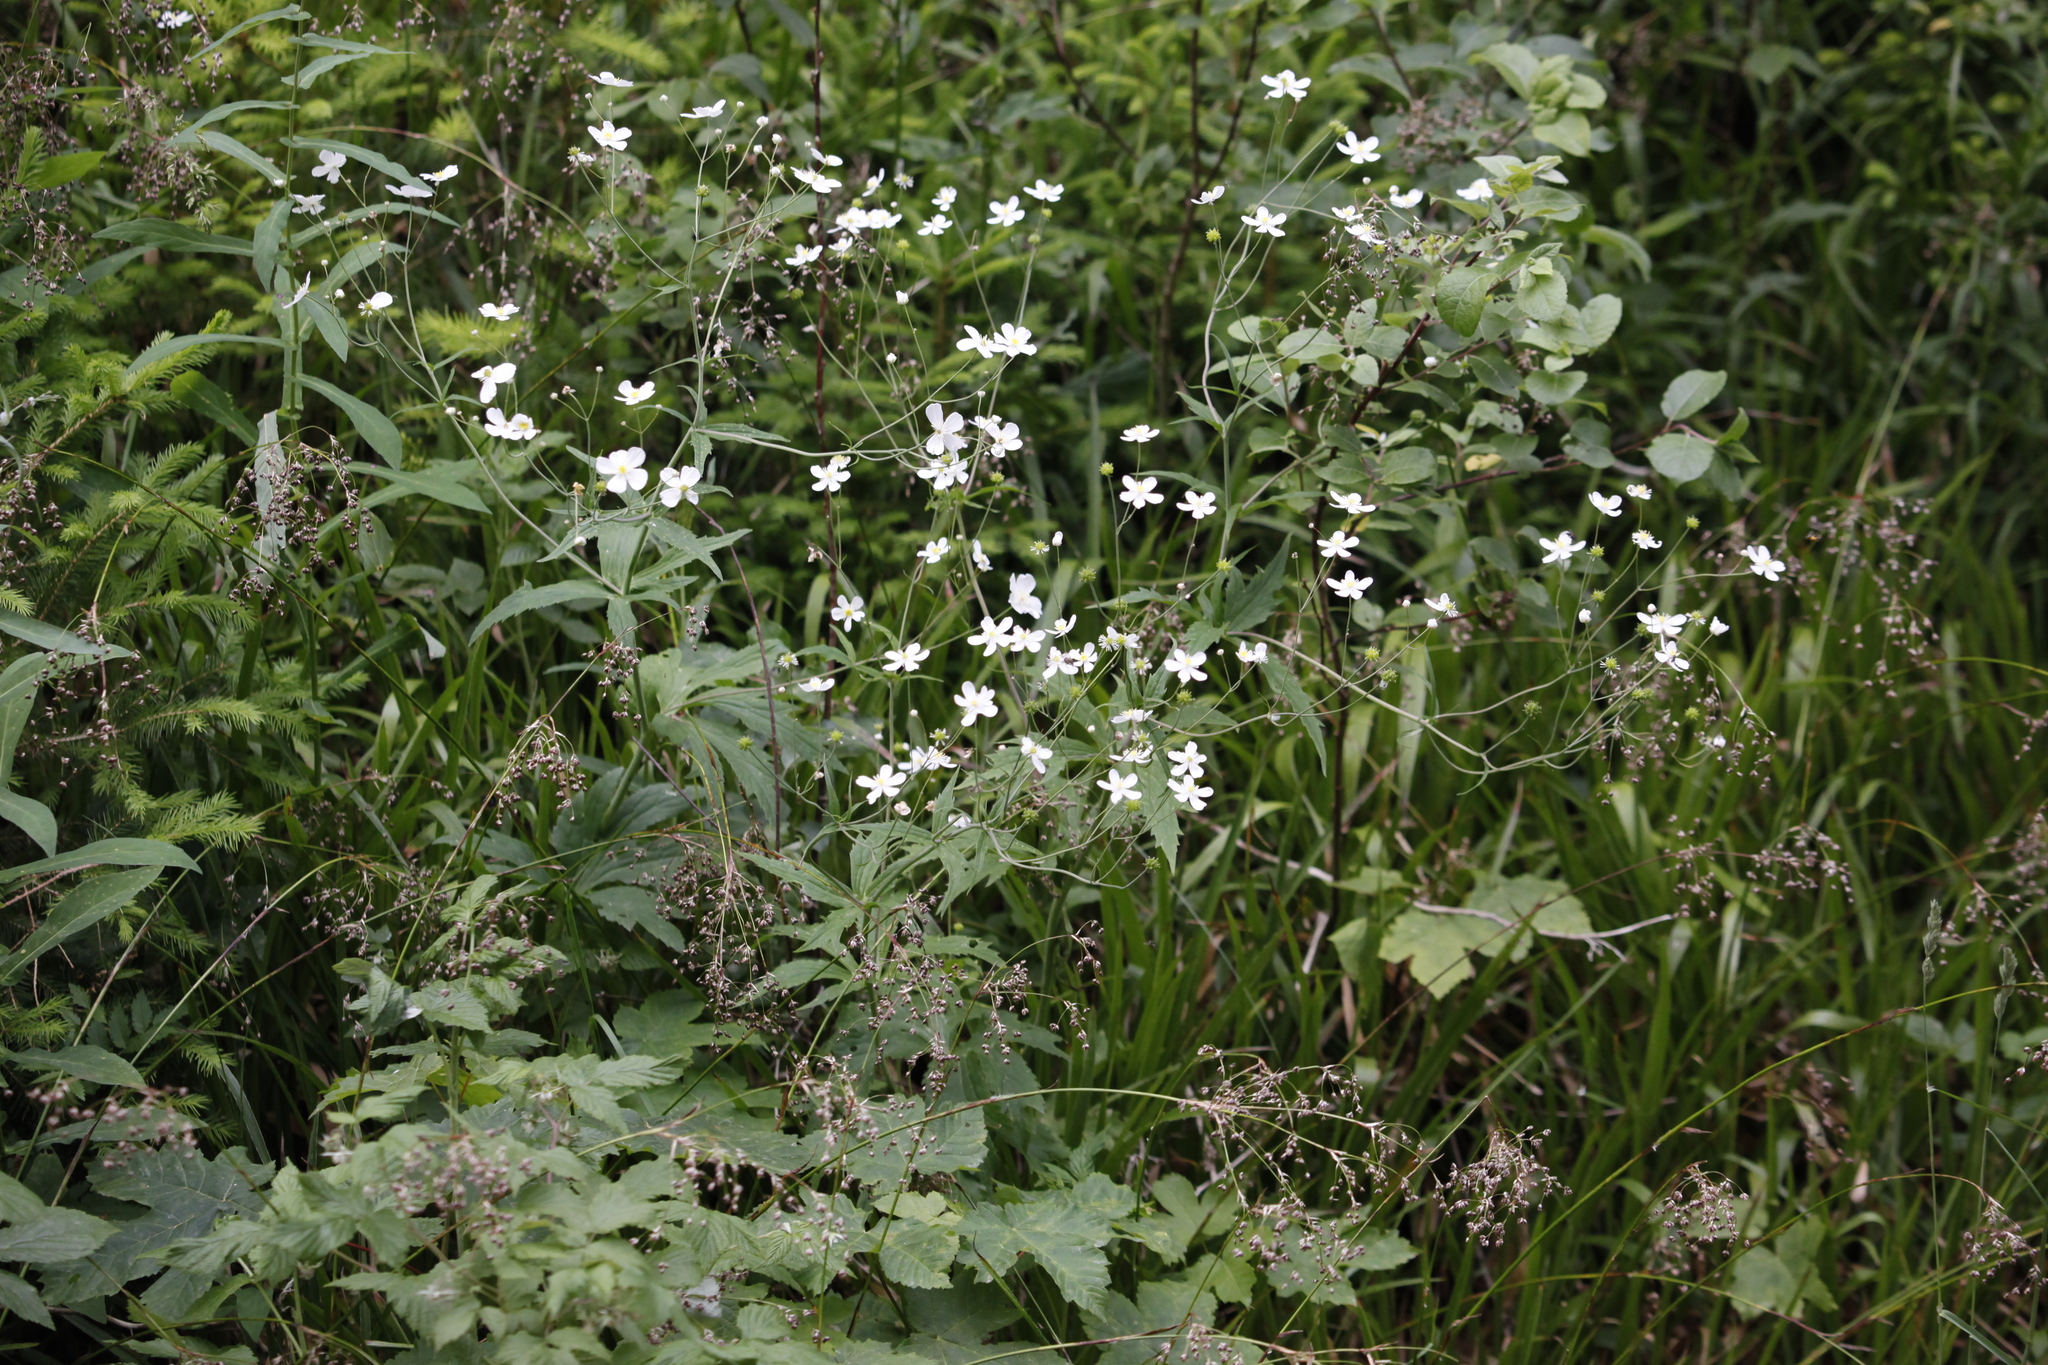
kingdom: Plantae
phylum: Tracheophyta
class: Magnoliopsida
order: Ranunculales
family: Ranunculaceae
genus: Ranunculus
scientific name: Ranunculus aconitifolius
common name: Aconite-leaved buttercup
